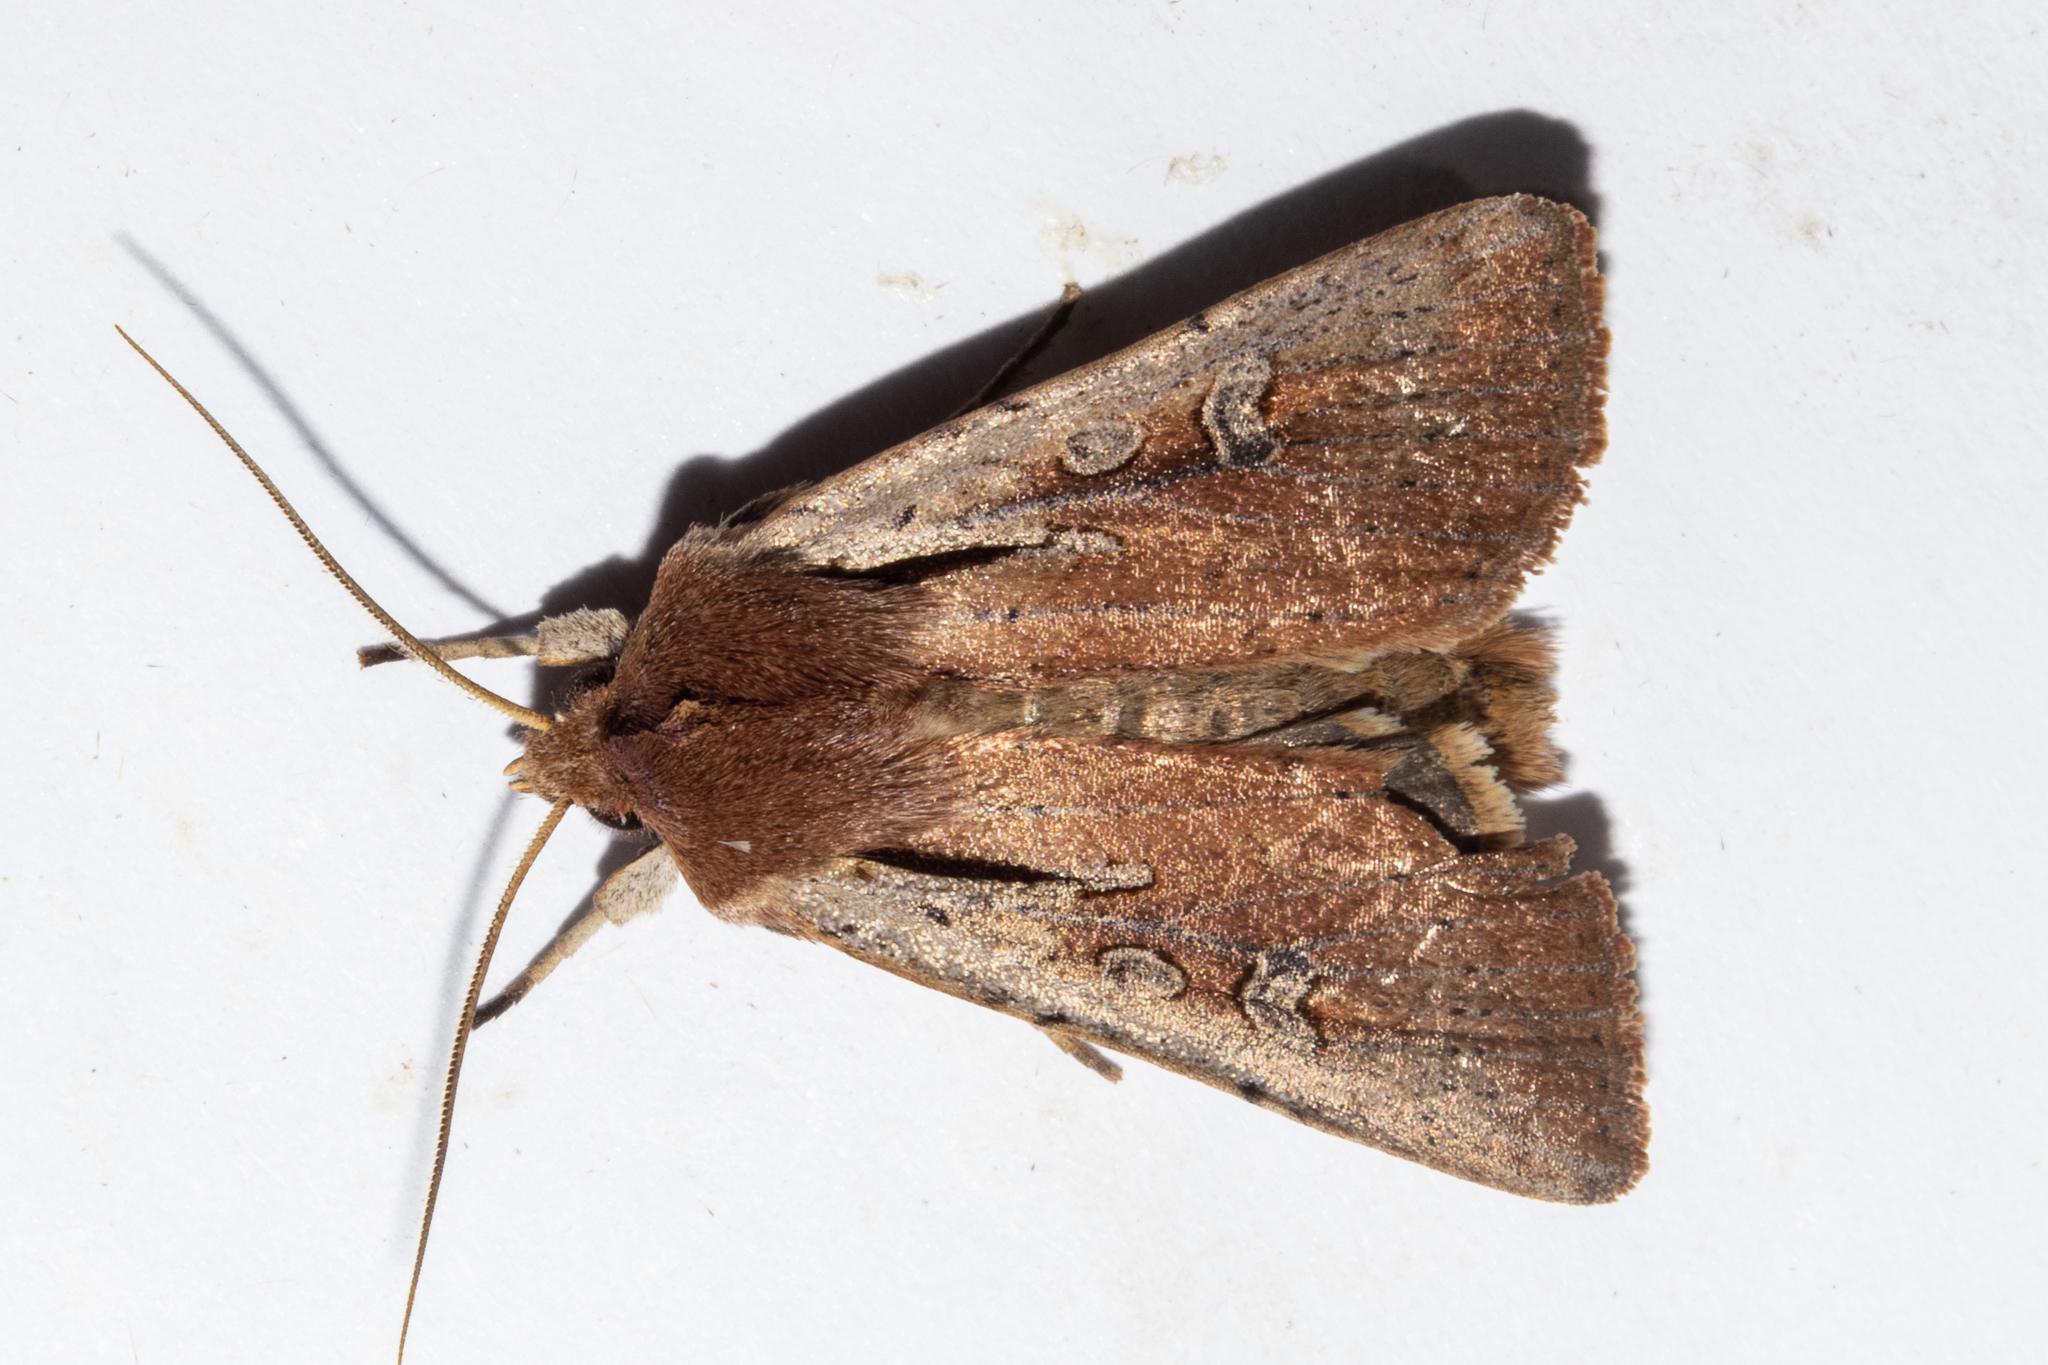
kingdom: Animalia
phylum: Arthropoda
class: Insecta
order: Lepidoptera
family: Noctuidae
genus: Ichneutica
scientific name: Ichneutica atristriga
